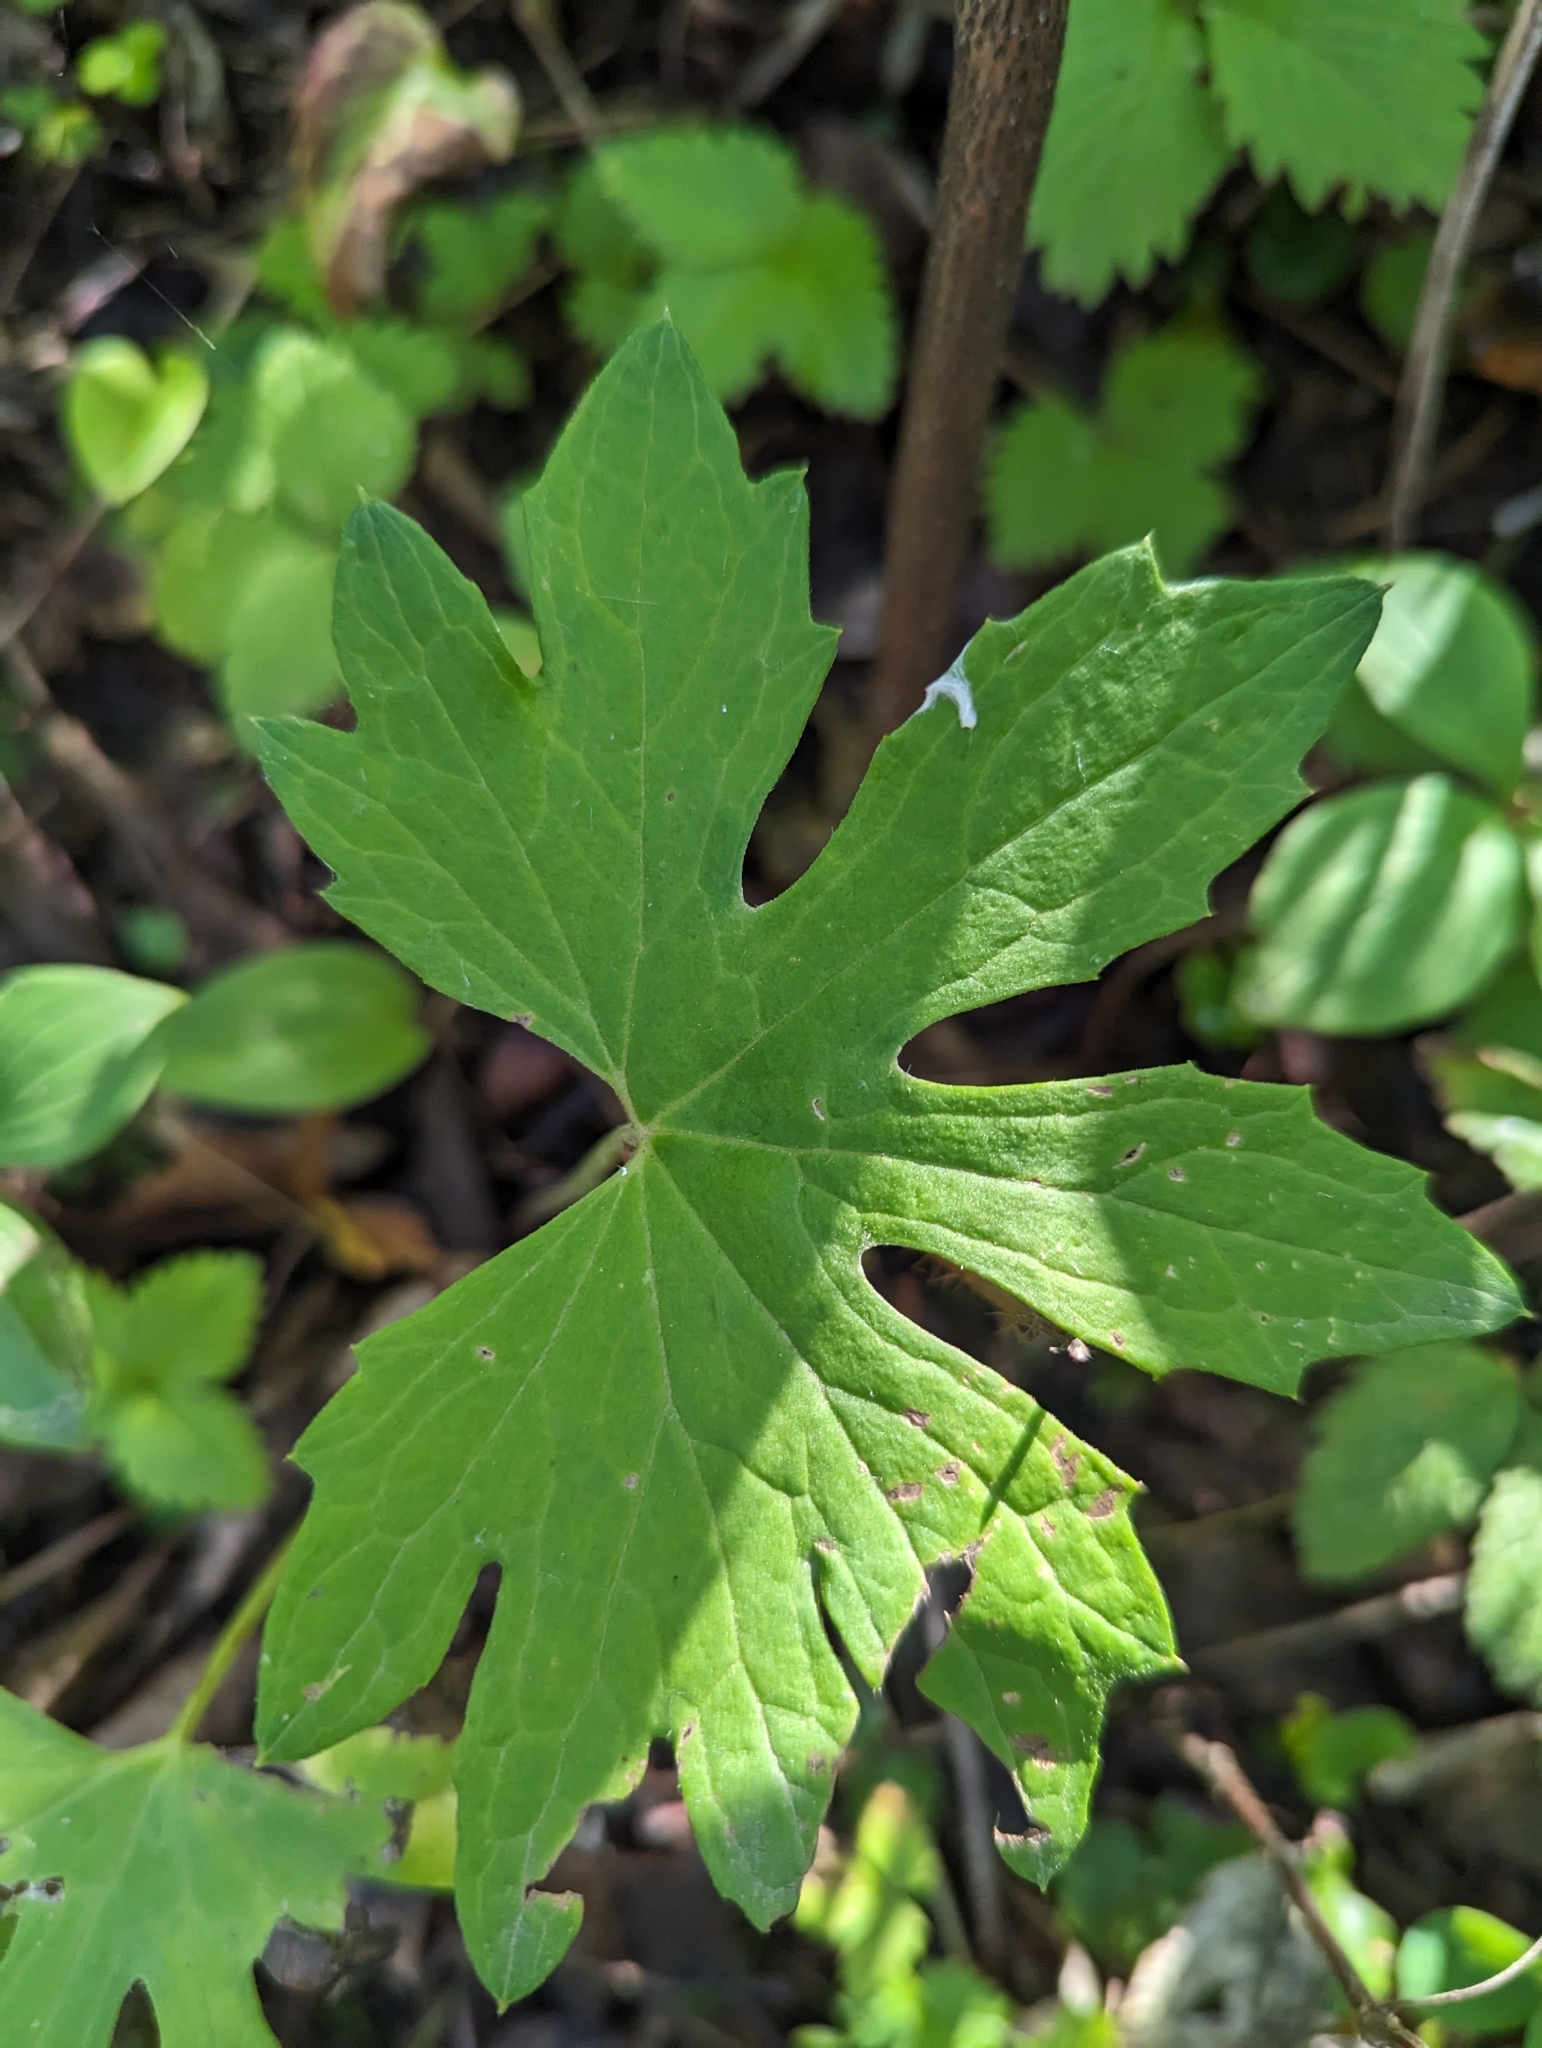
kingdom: Plantae
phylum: Tracheophyta
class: Magnoliopsida
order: Asterales
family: Asteraceae
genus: Petasites
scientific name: Petasites frigidus
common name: Arctic butterbur
